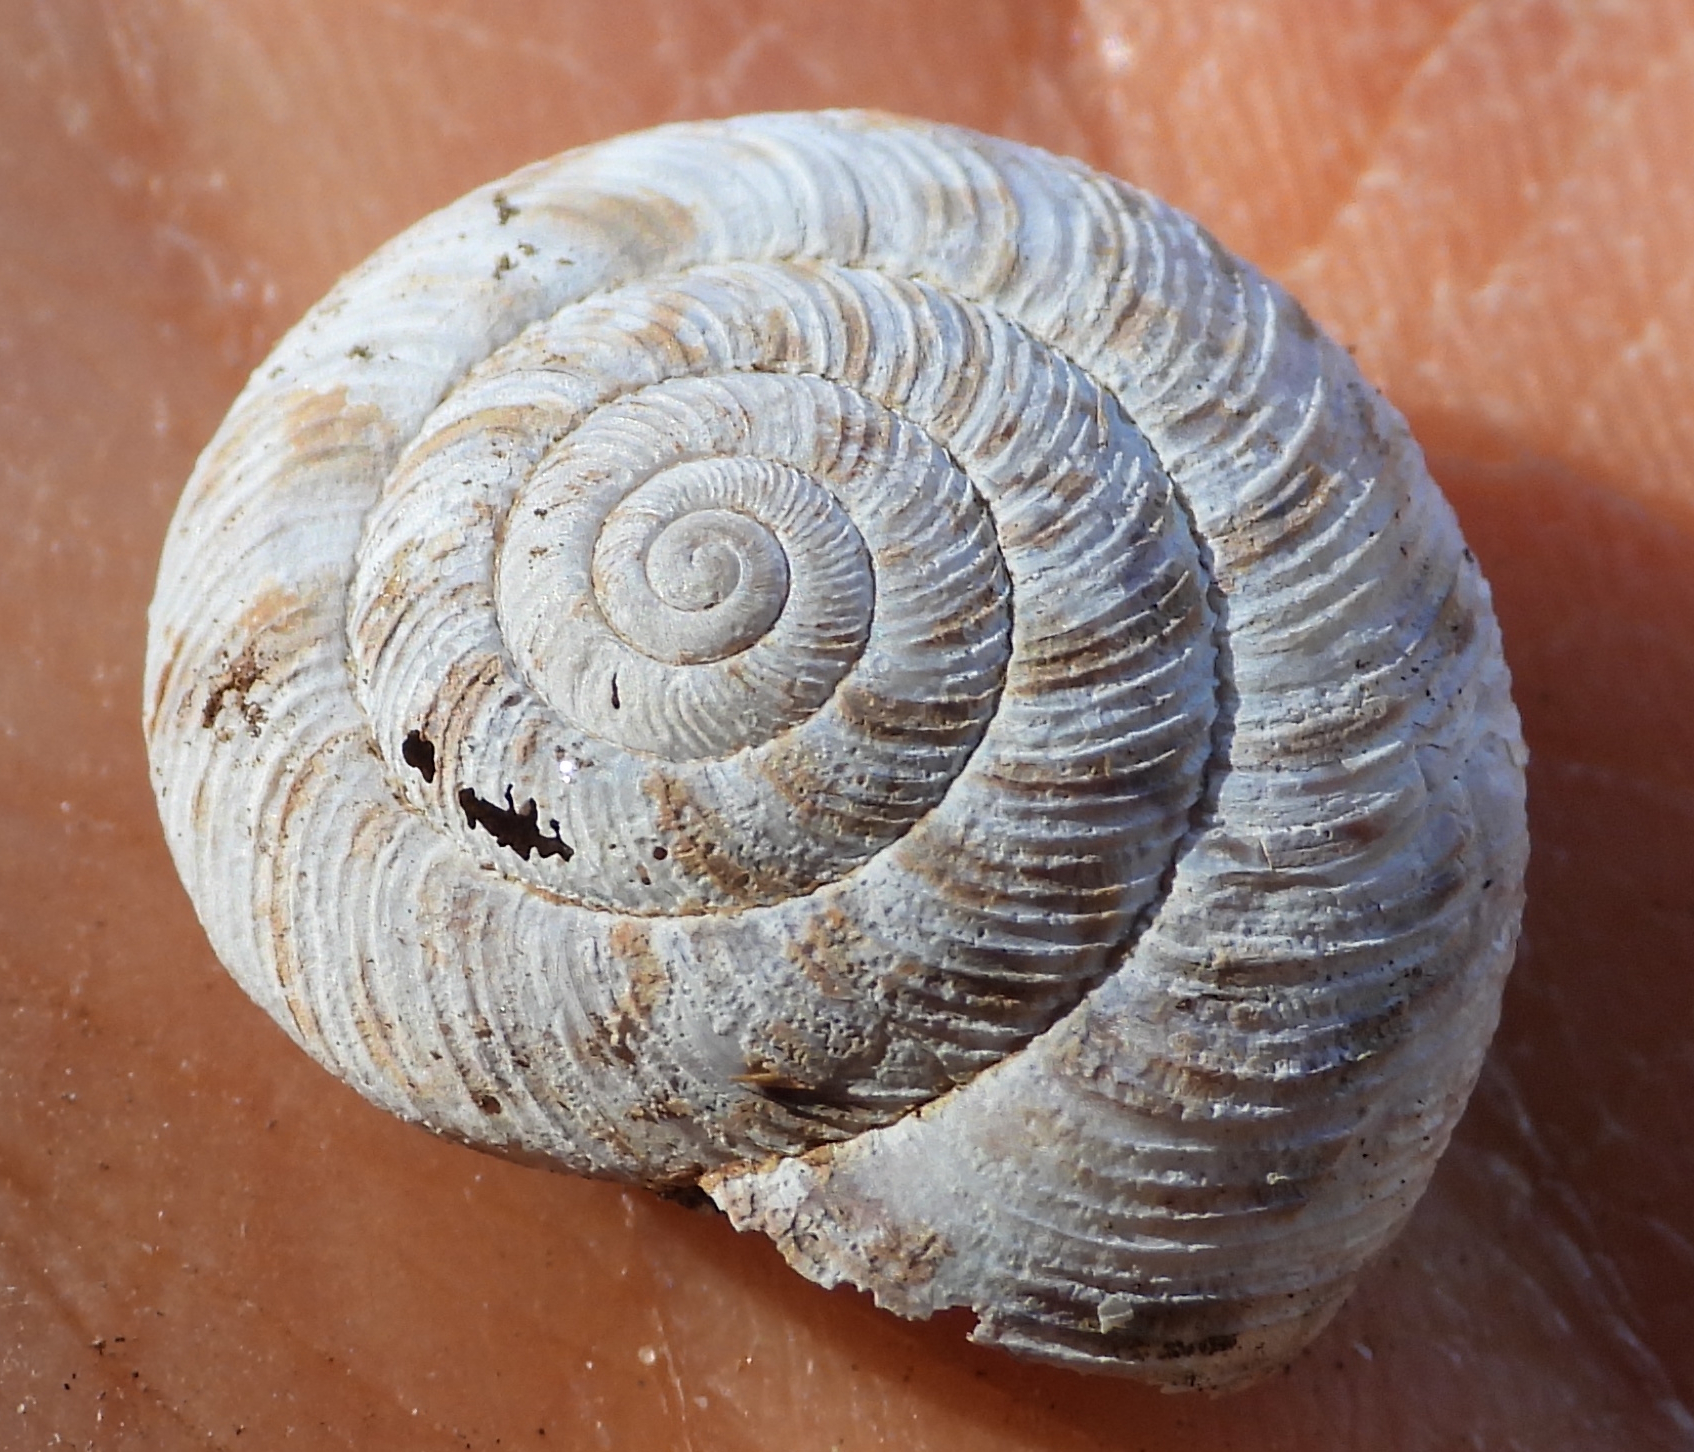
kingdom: Animalia
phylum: Mollusca
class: Gastropoda
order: Stylommatophora
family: Discidae
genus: Anguispira
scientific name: Anguispira alternata
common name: Flamed tigersnail
